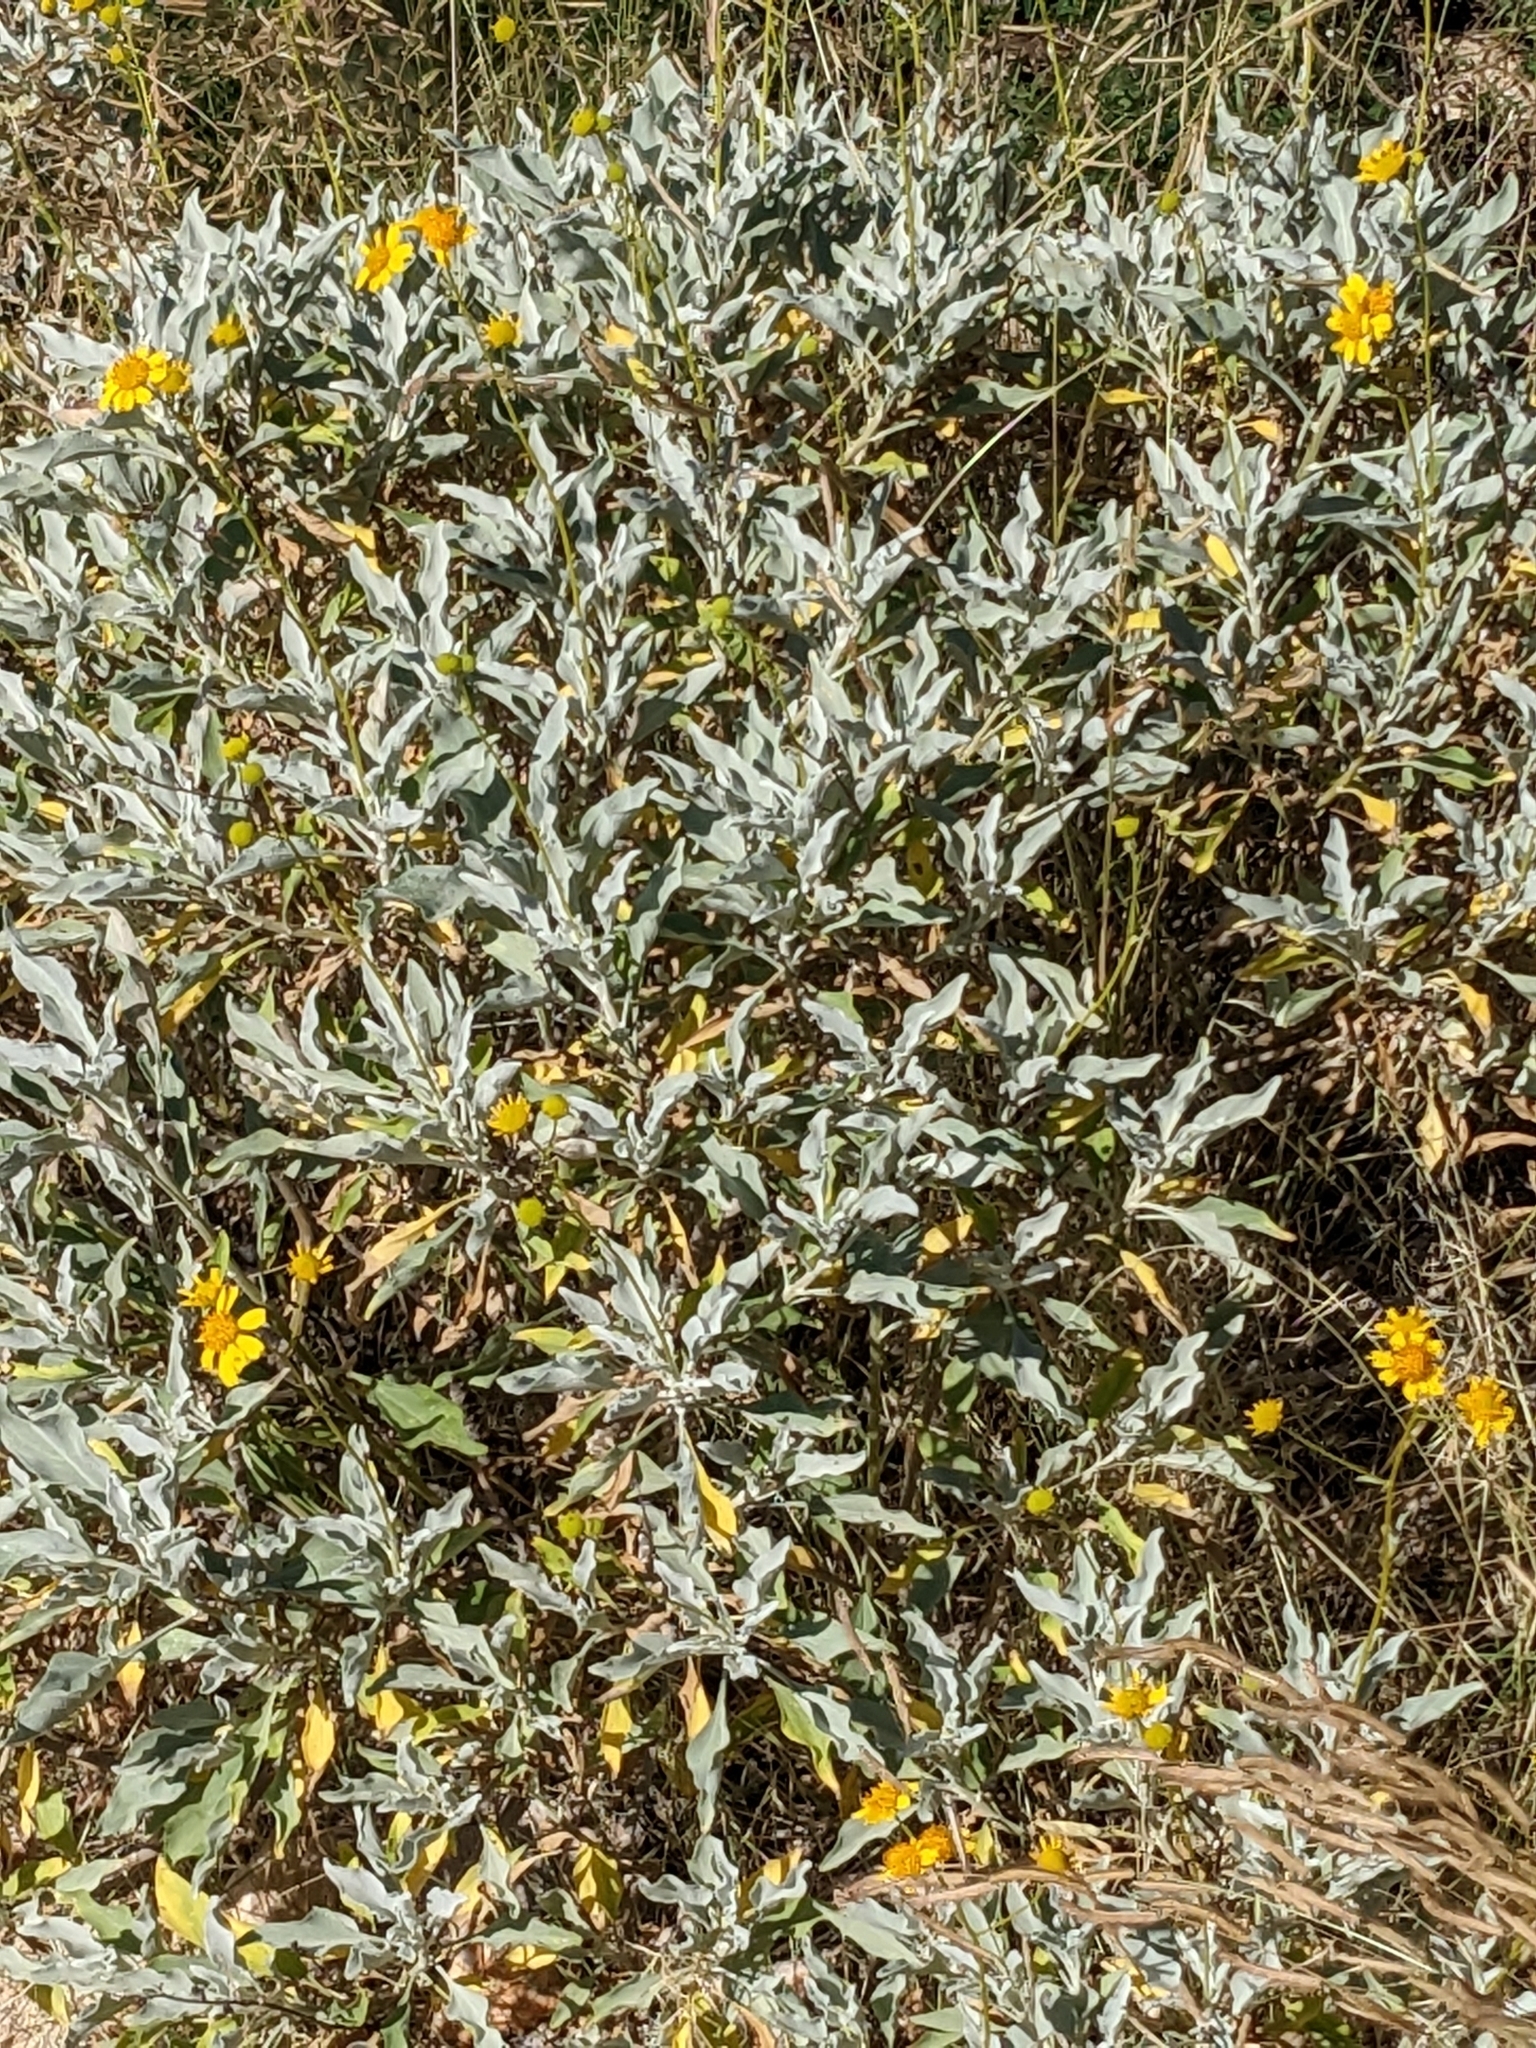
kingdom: Plantae
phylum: Tracheophyta
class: Magnoliopsida
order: Asterales
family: Asteraceae
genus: Encelia
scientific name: Encelia farinosa
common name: Brittlebush
